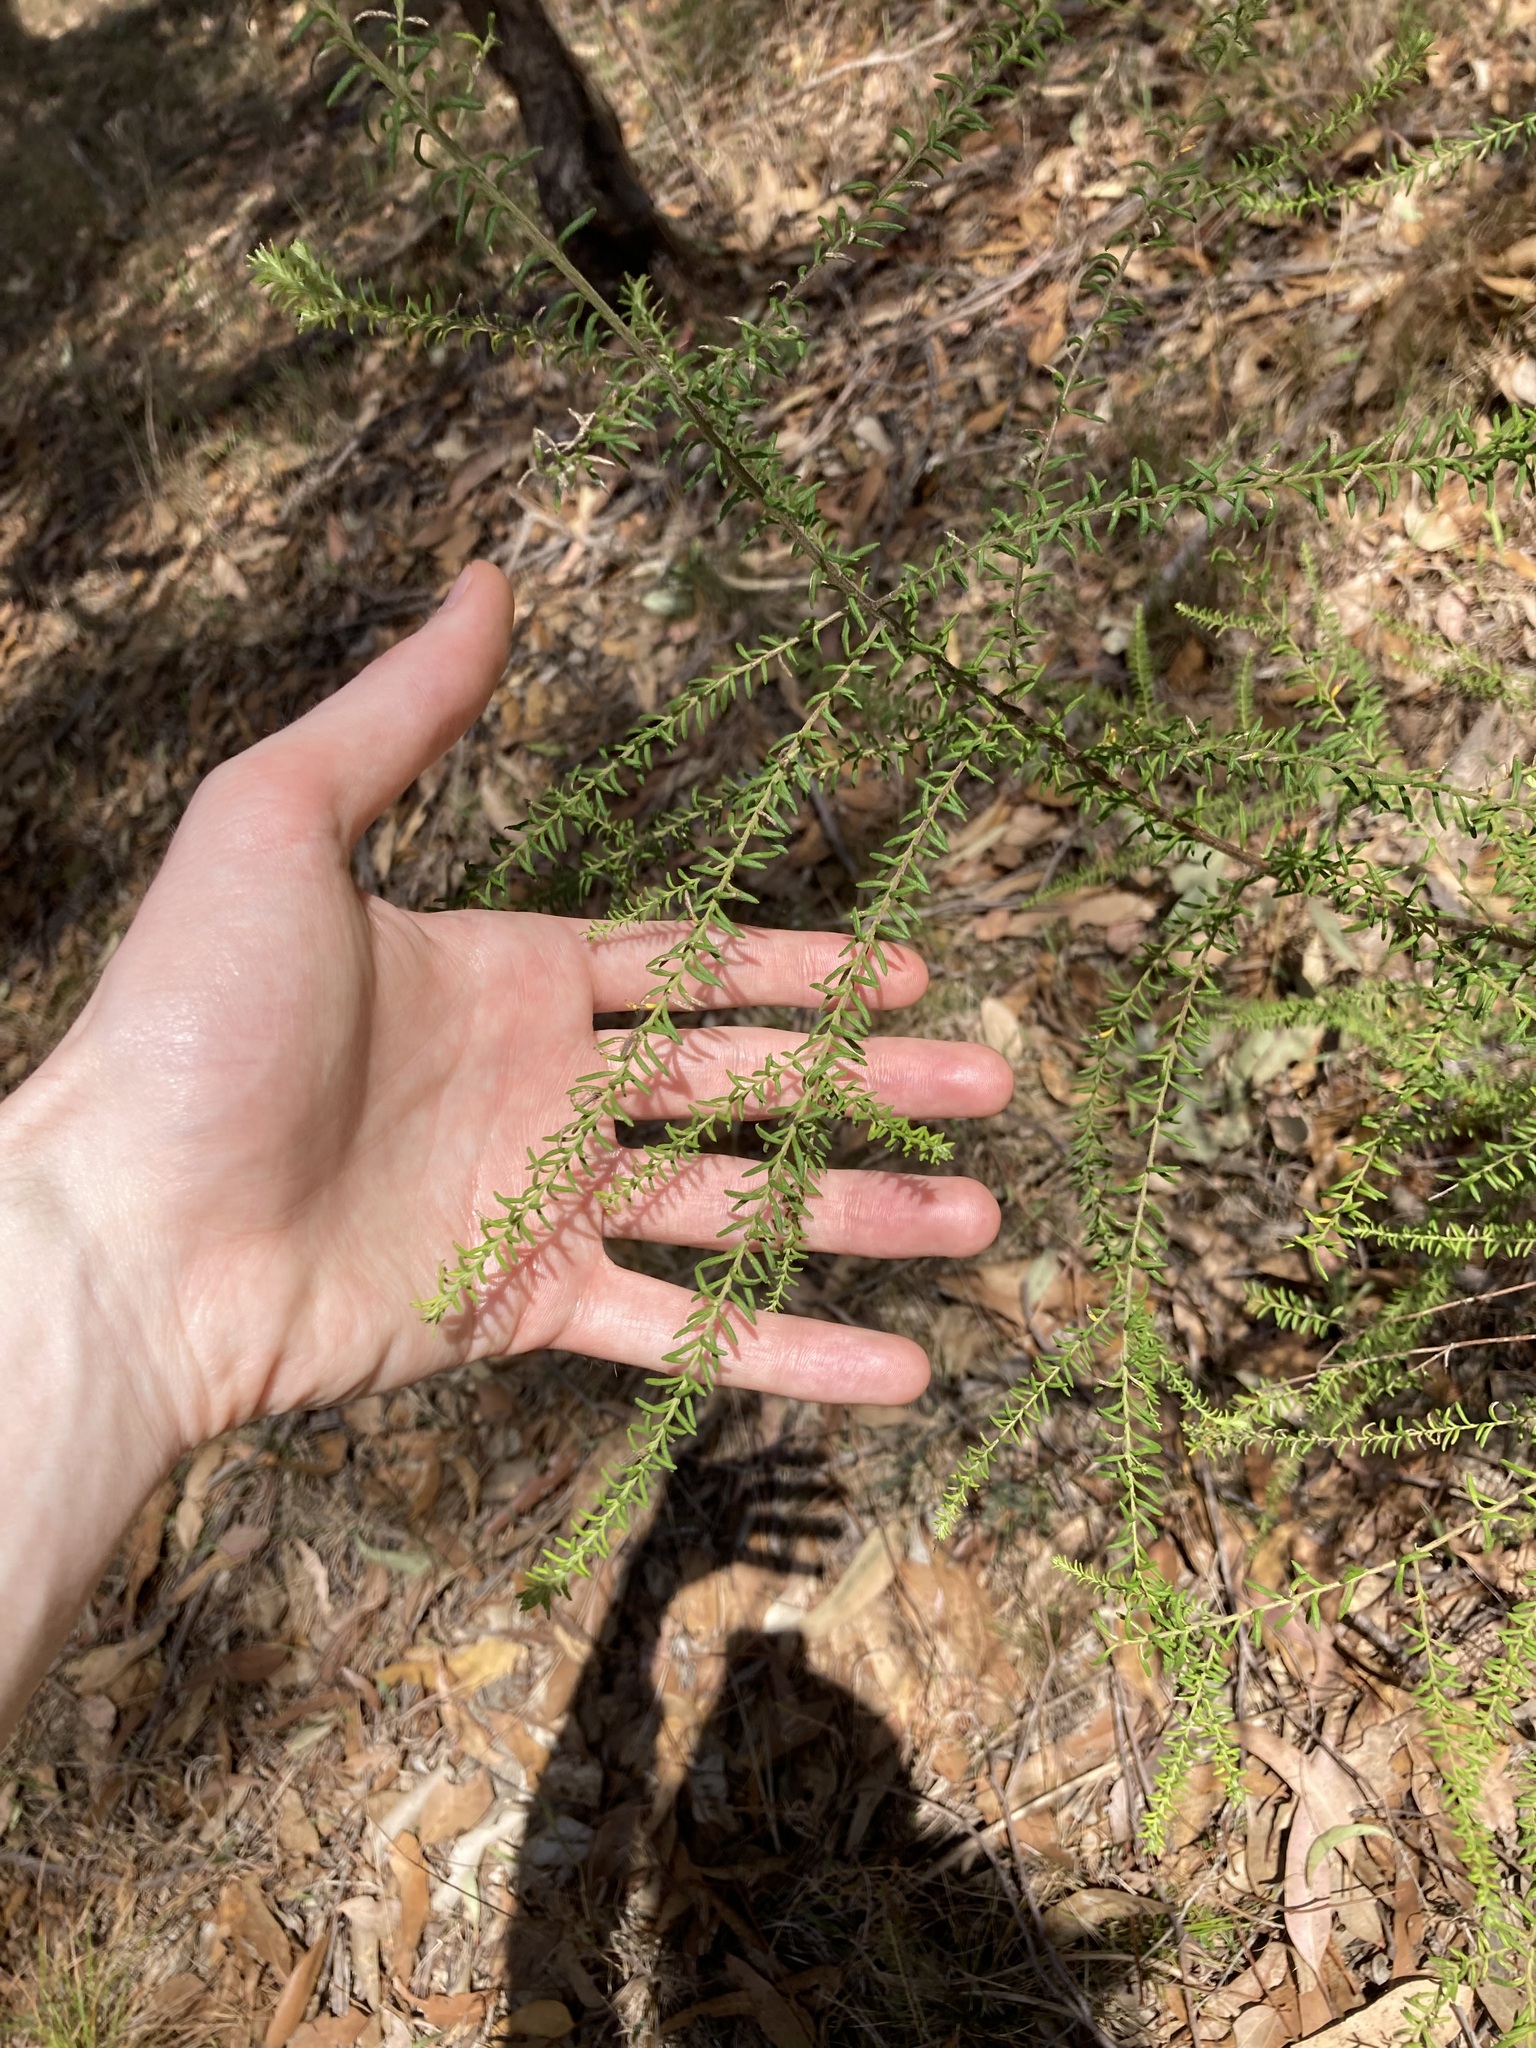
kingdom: Plantae
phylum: Tracheophyta
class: Magnoliopsida
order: Asterales
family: Asteraceae
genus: Ozothamnus
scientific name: Ozothamnus diosmifolius
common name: White-dogwood
